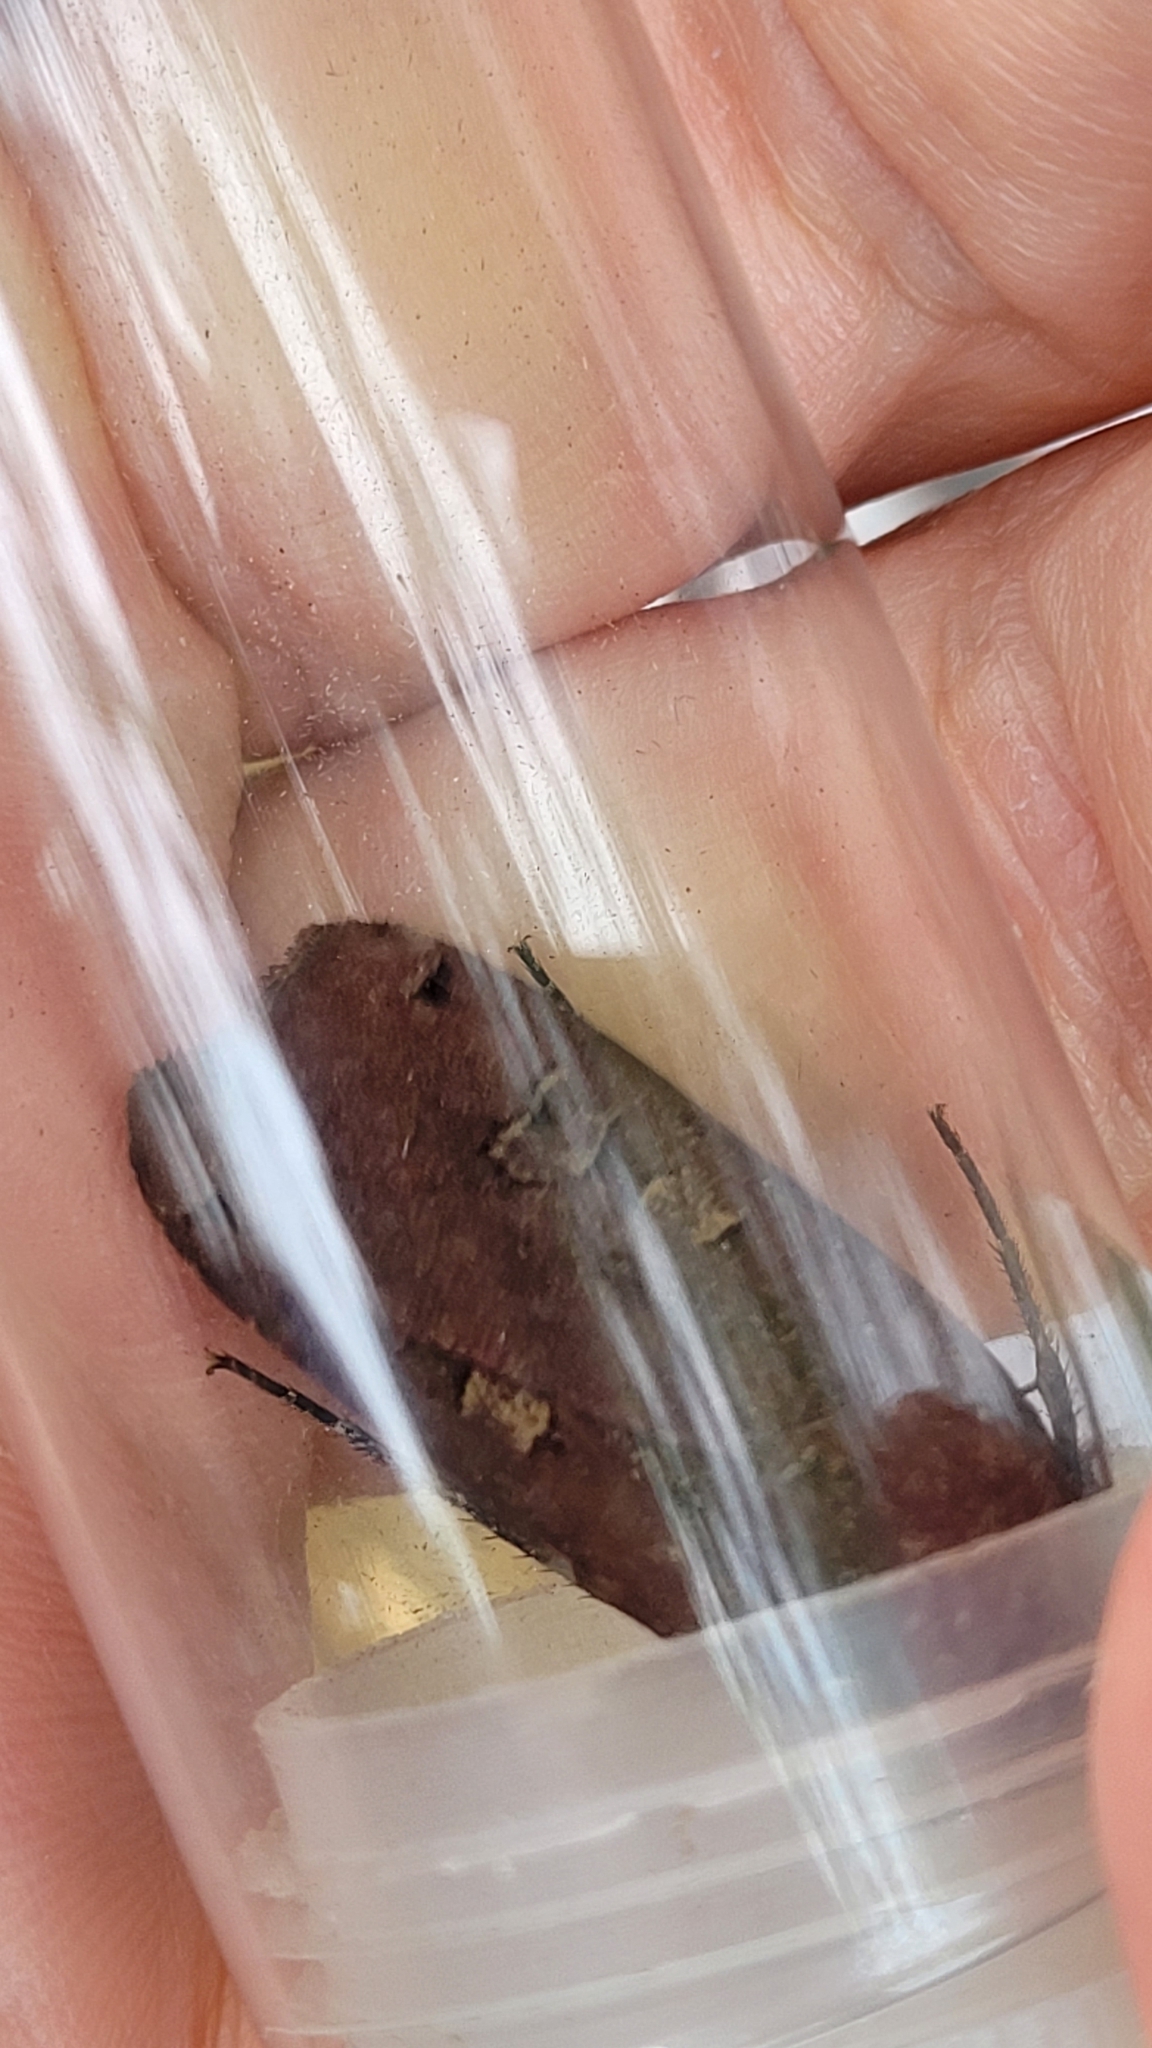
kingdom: Animalia
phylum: Arthropoda
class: Insecta
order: Lepidoptera
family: Noctuidae
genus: Noctua
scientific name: Noctua pronuba
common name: Large yellow underwing
